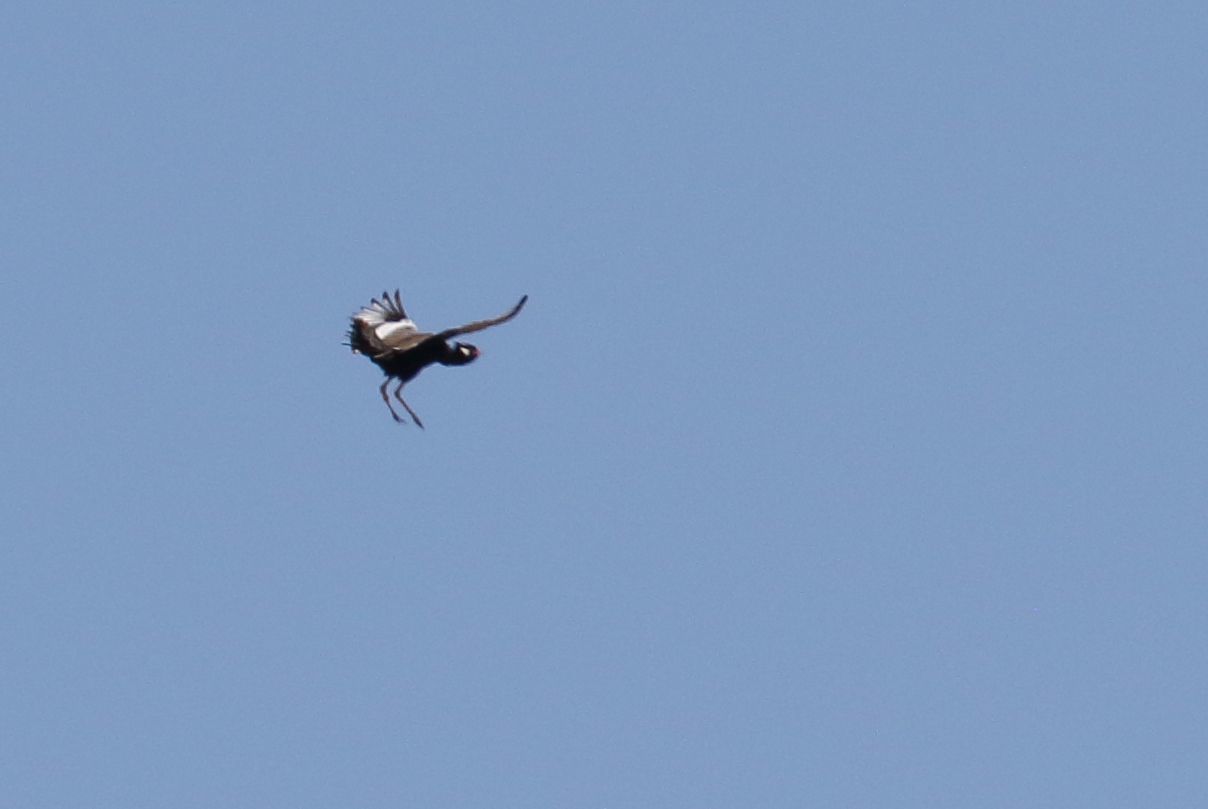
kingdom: Animalia
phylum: Chordata
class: Aves
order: Otidiformes
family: Otididae
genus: Afrotis
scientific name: Afrotis afraoides
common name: Northern black korhaan
